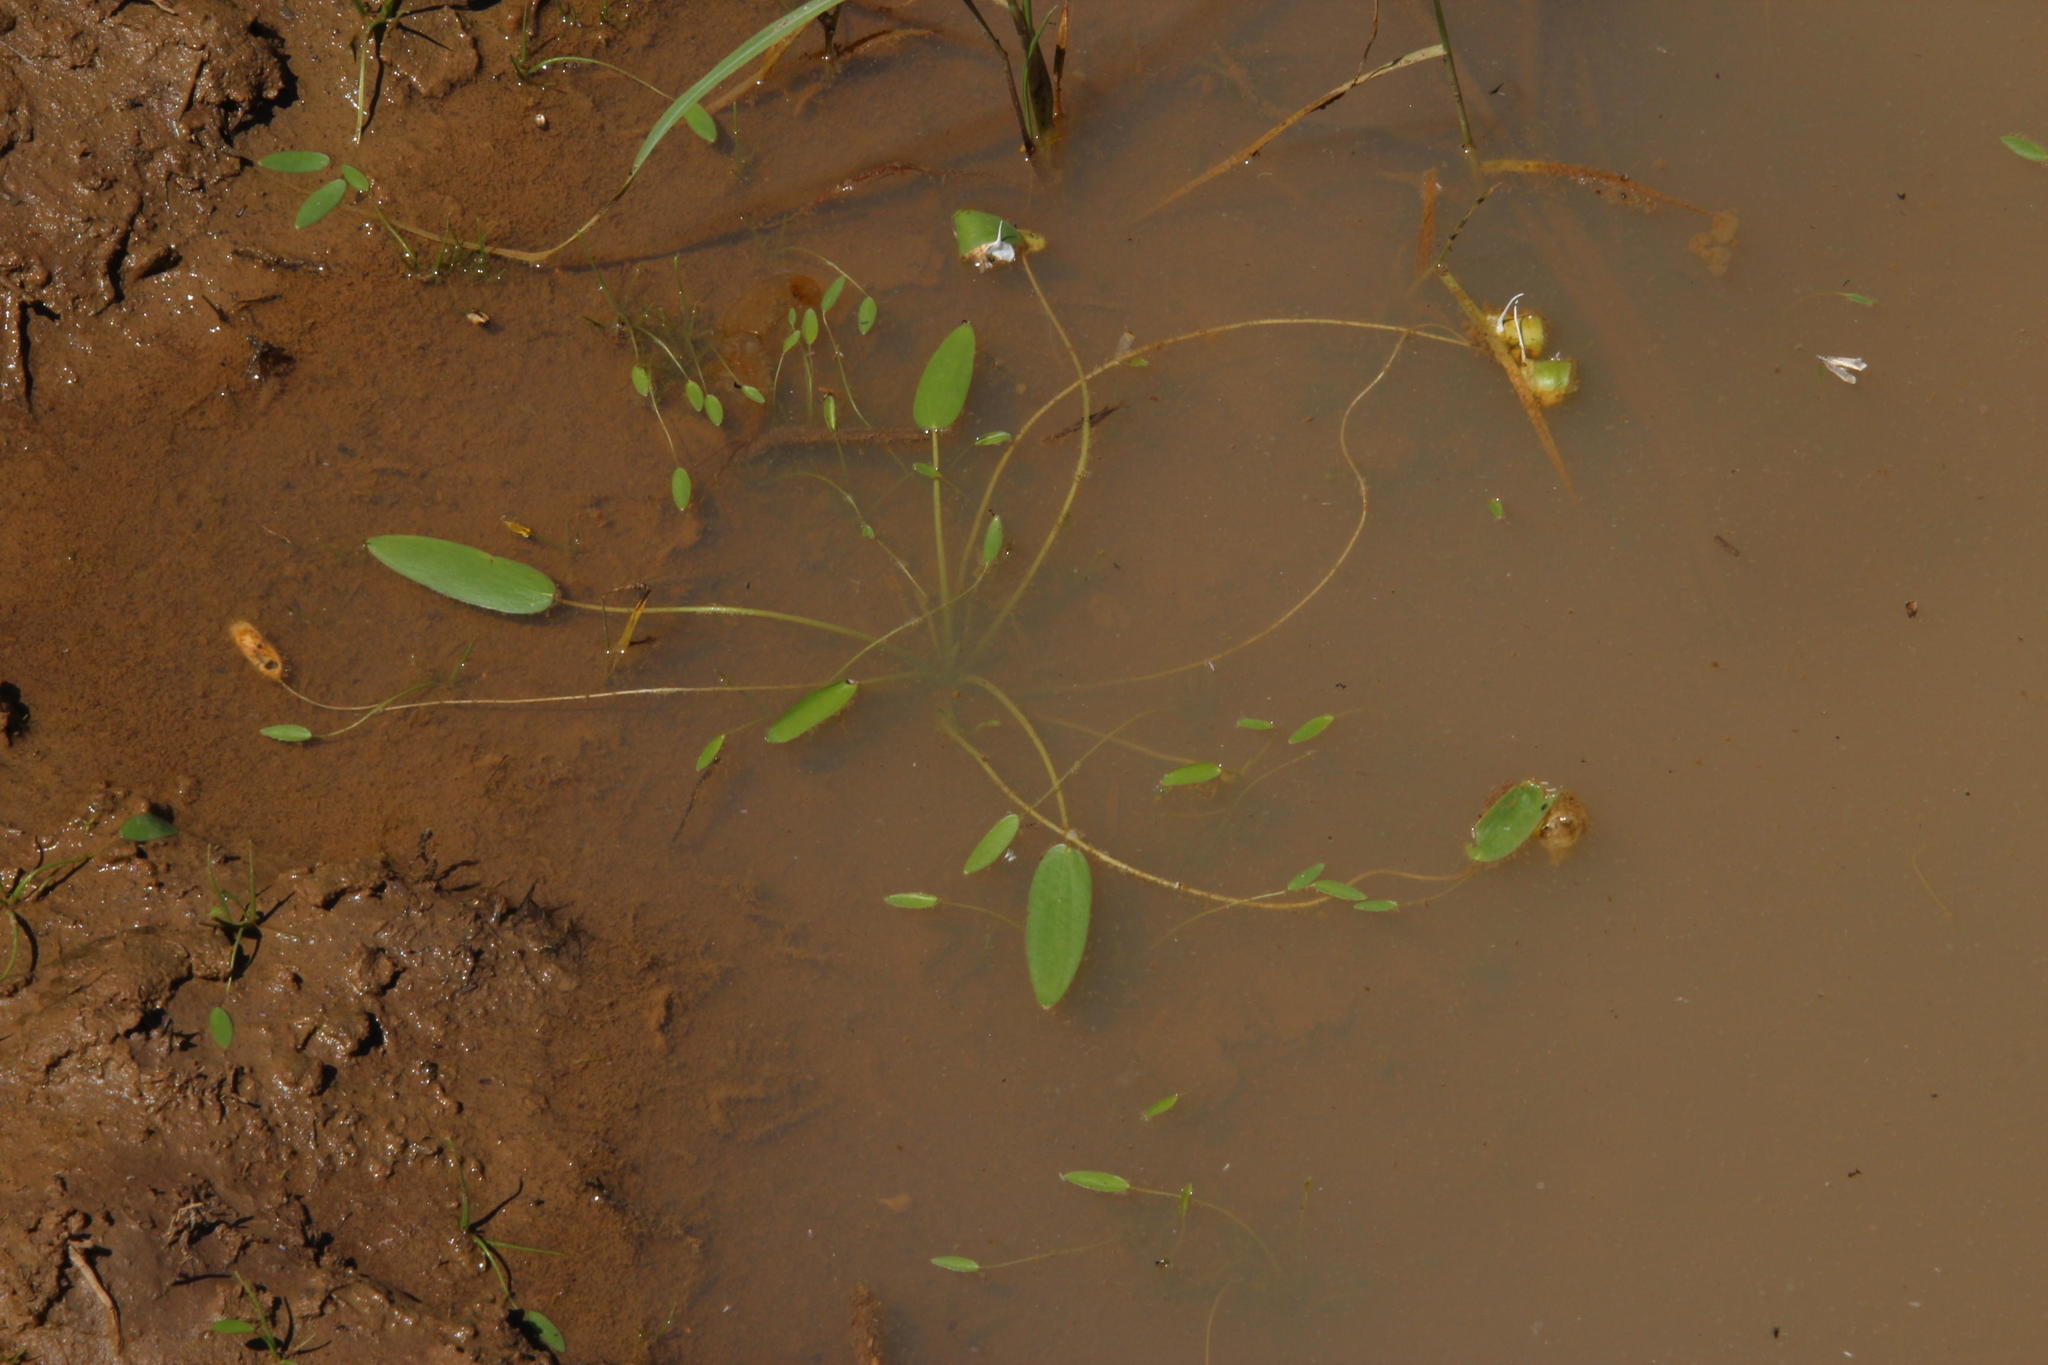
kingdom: Plantae
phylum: Tracheophyta
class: Liliopsida
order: Alismatales
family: Aponogetonaceae
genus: Aponogeton
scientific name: Aponogeton distachyos
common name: Cape-pondweed
